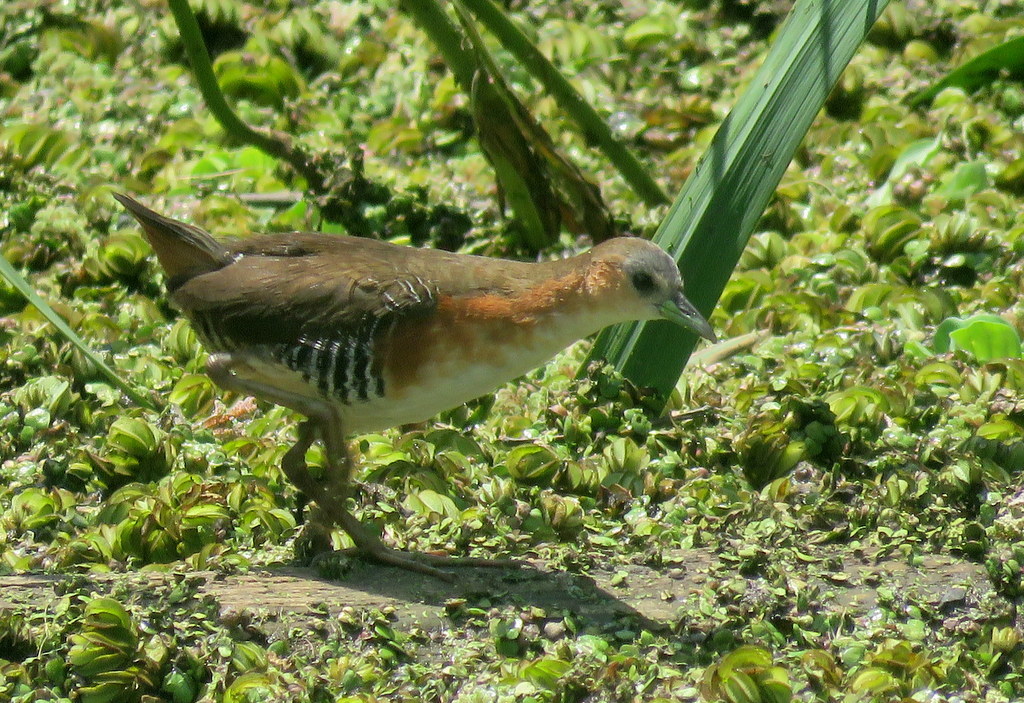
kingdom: Animalia
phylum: Chordata
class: Aves
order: Gruiformes
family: Rallidae
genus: Laterallus
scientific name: Laterallus melanophaius
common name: Rufous-sided crake
